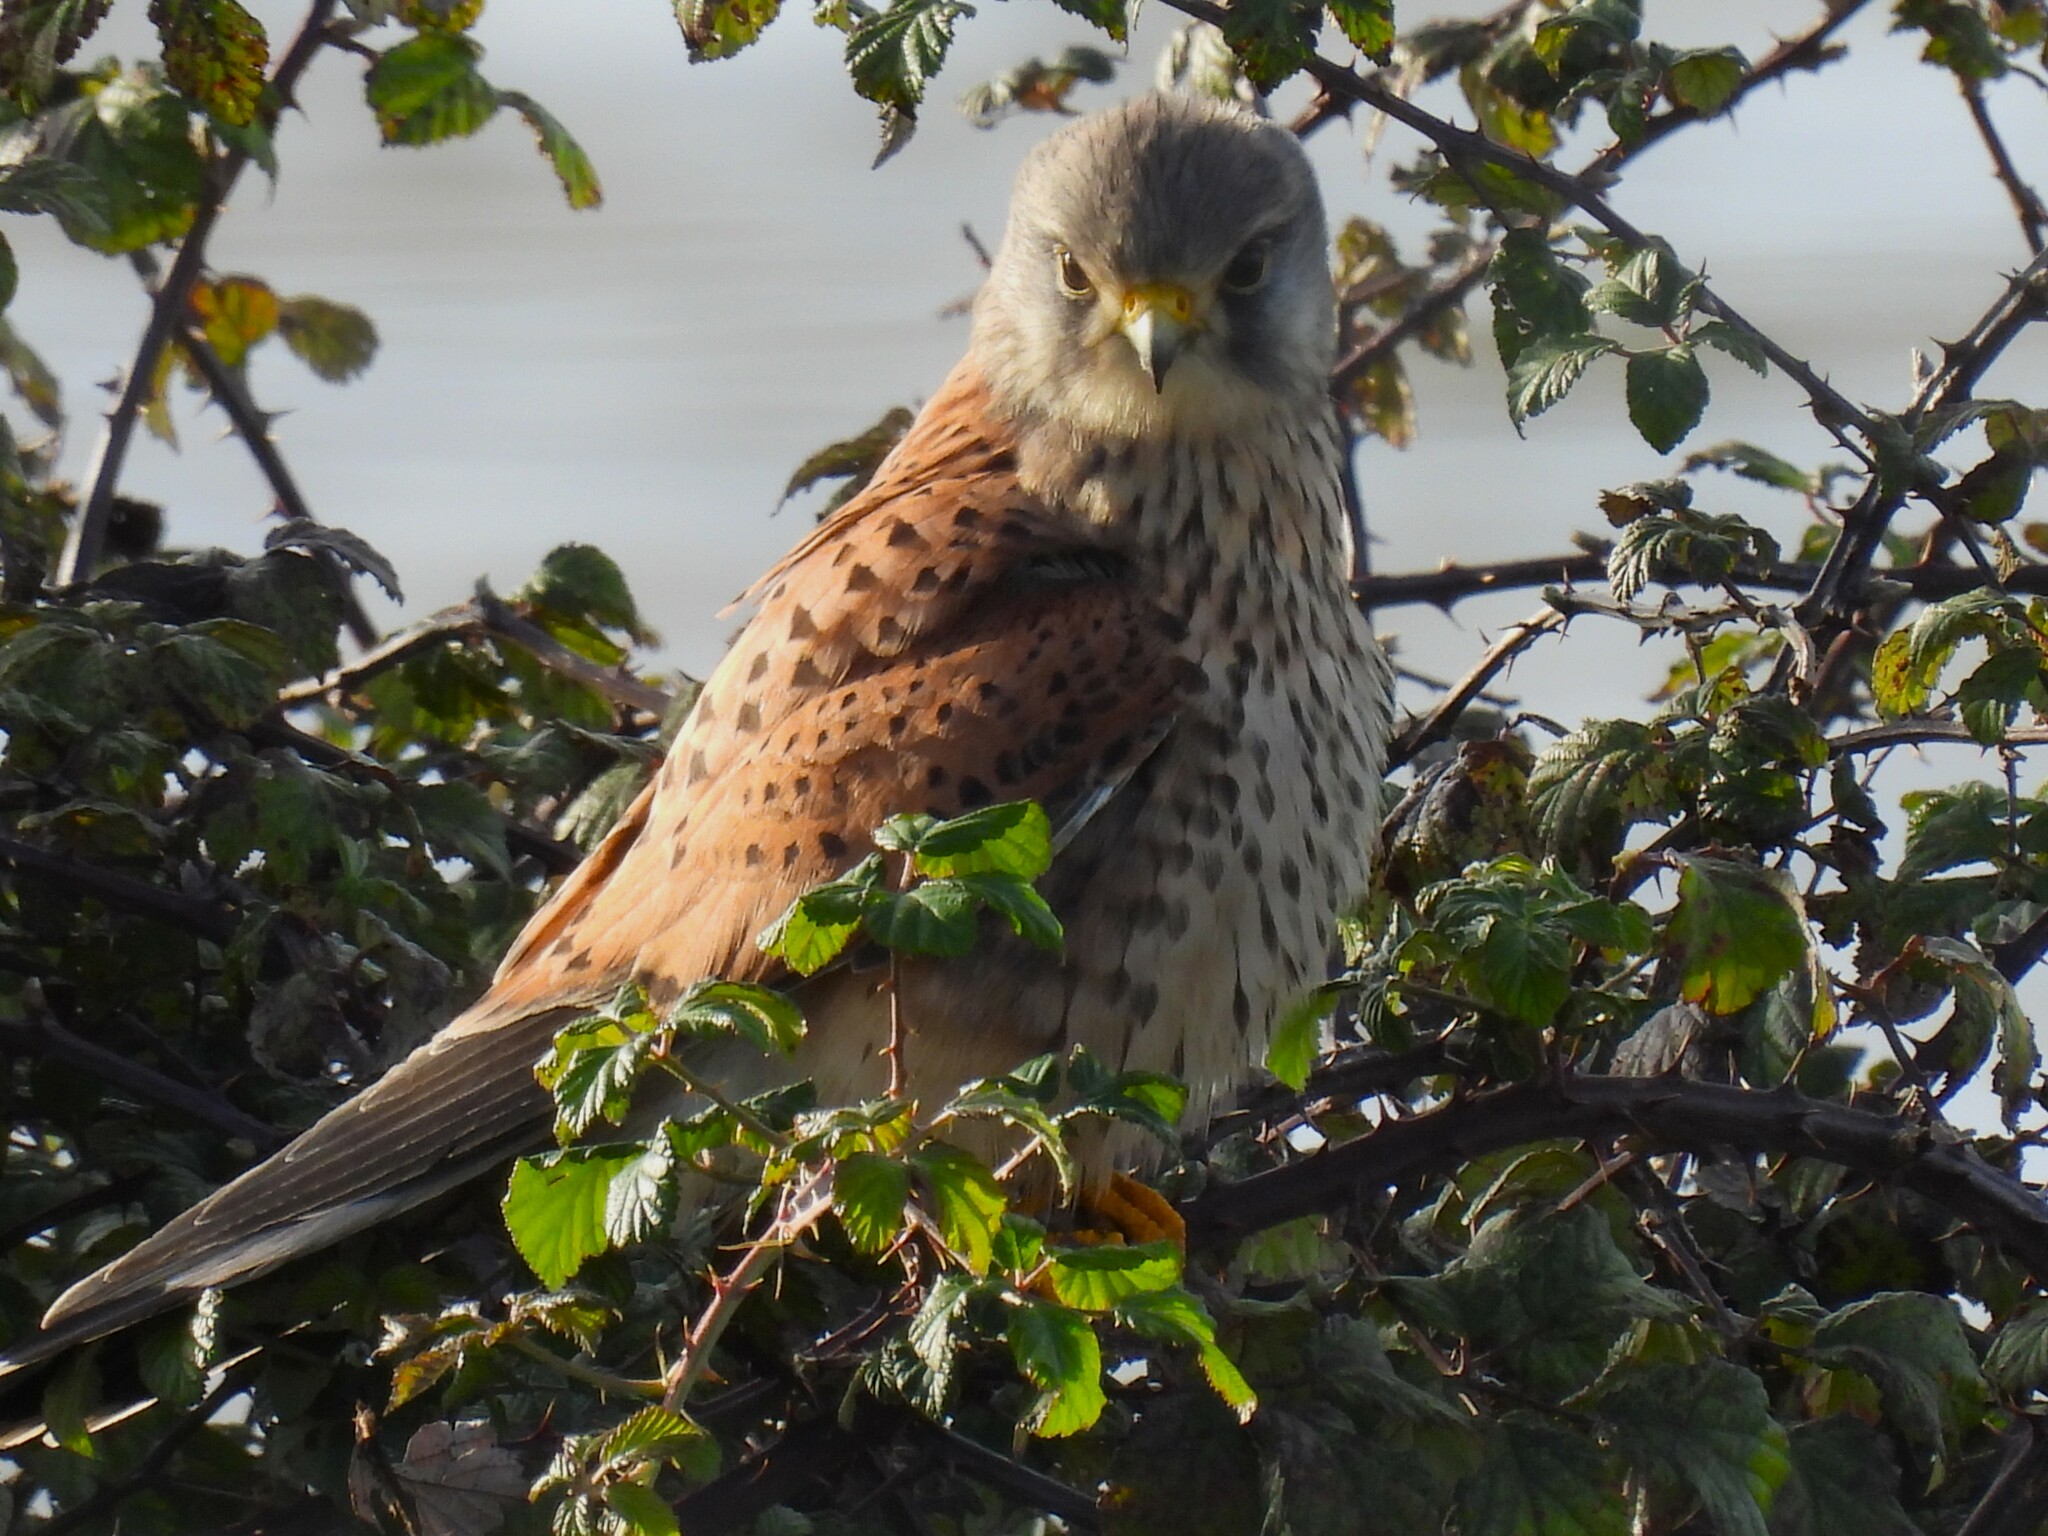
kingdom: Animalia
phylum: Chordata
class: Aves
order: Falconiformes
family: Falconidae
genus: Falco
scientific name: Falco tinnunculus
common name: Common kestrel
